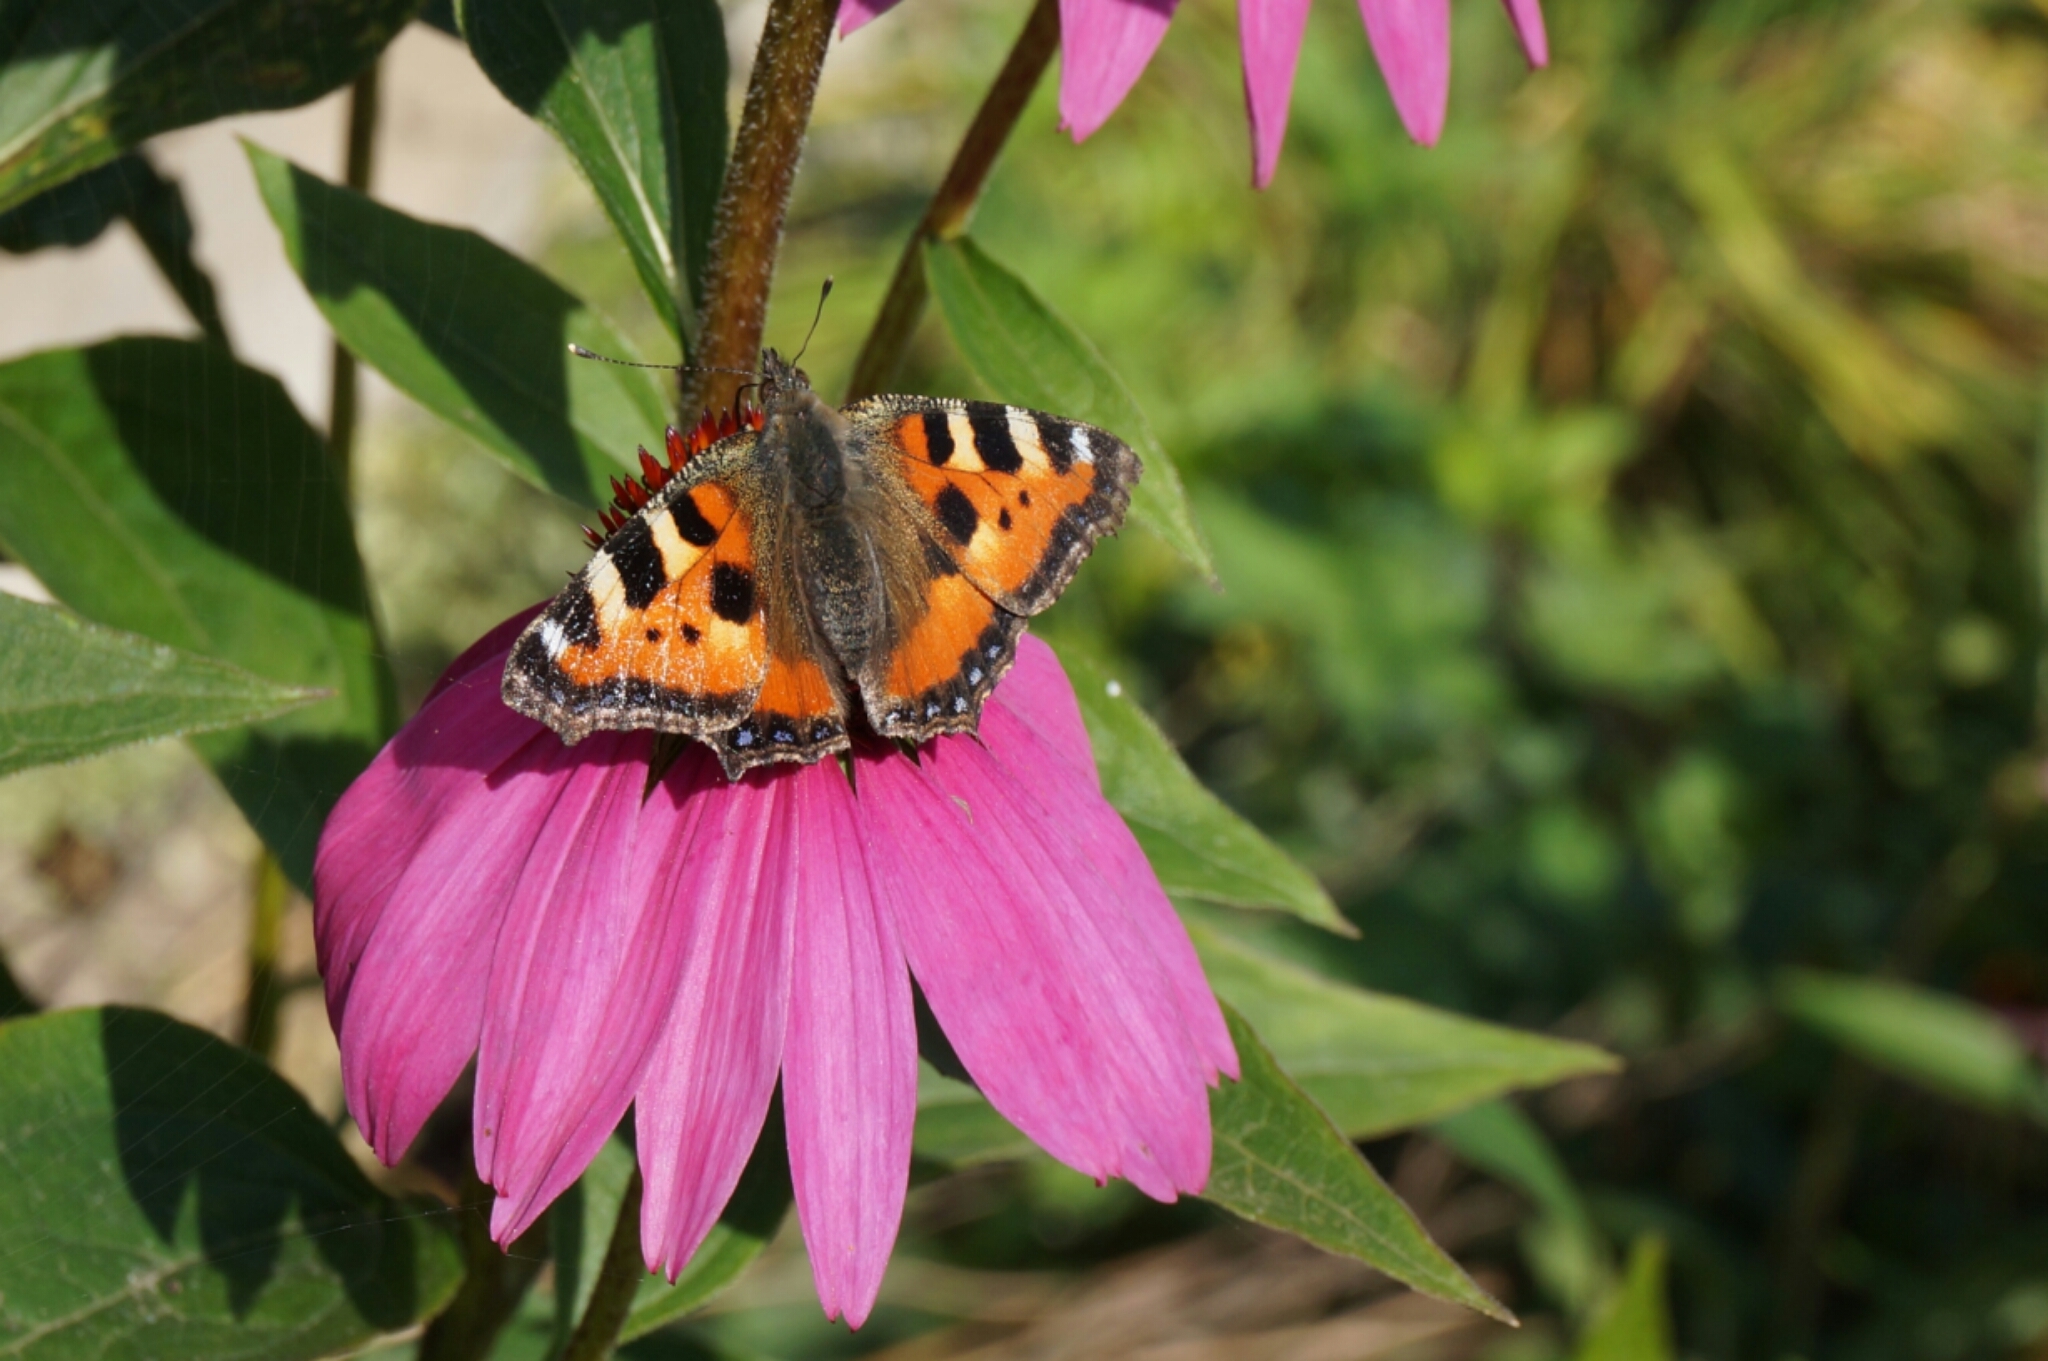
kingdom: Animalia
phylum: Arthropoda
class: Insecta
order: Lepidoptera
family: Nymphalidae
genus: Aglais
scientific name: Aglais urticae
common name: Small tortoiseshell
